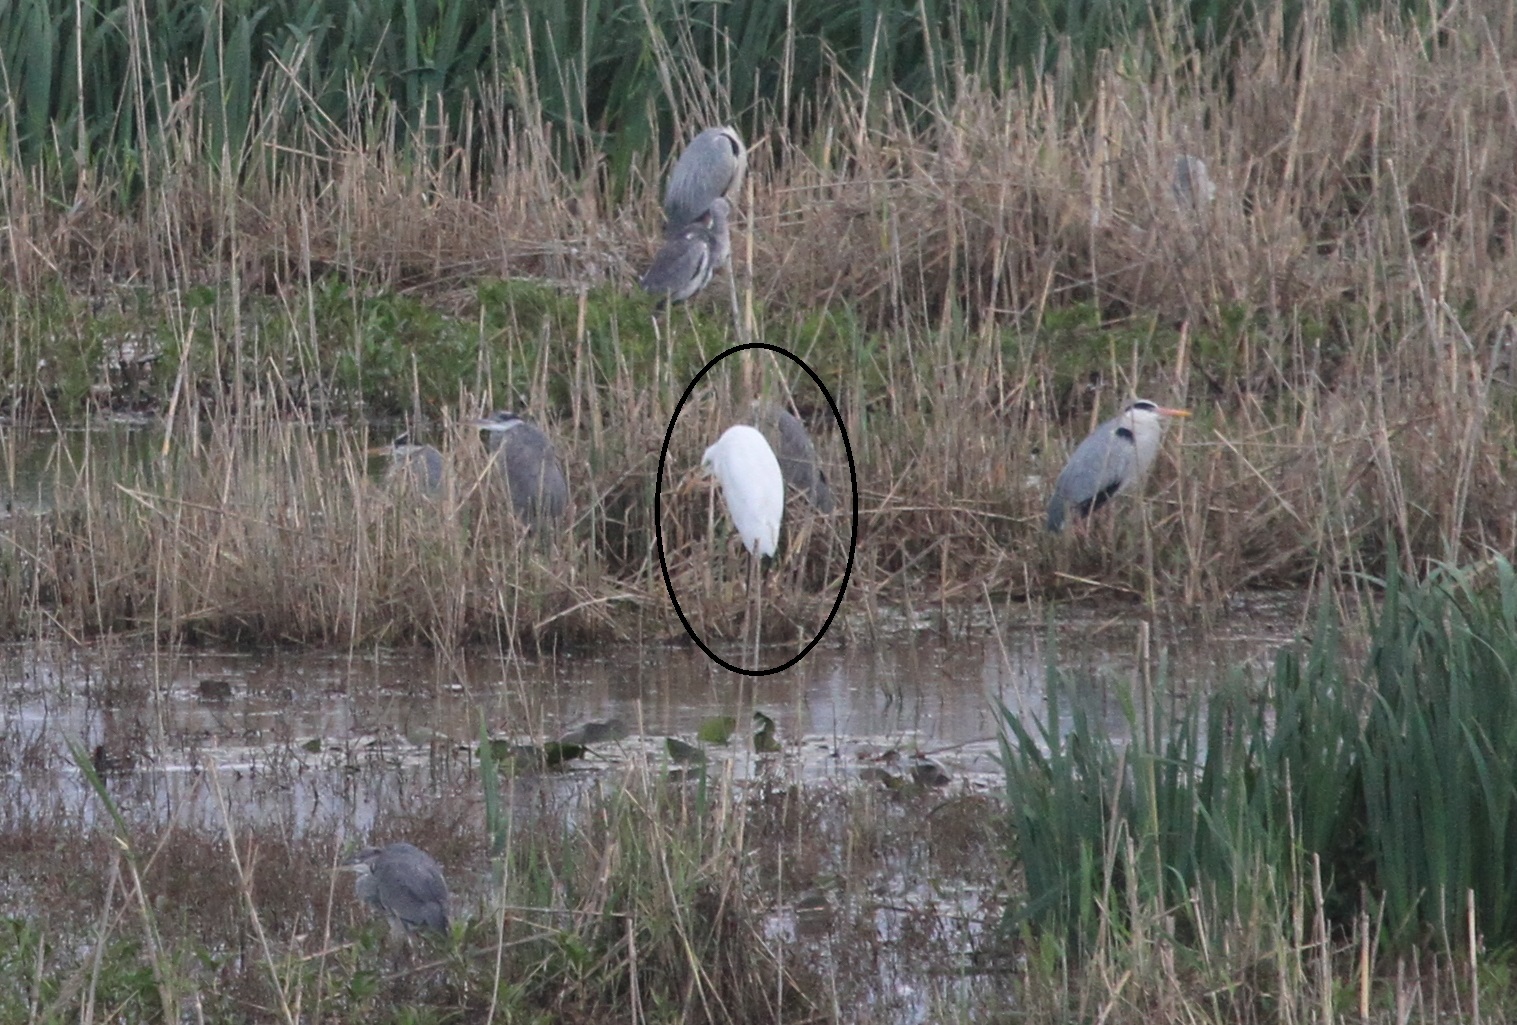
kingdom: Animalia
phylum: Chordata
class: Aves
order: Pelecaniformes
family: Ardeidae
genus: Ardea
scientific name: Ardea alba
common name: Great egret
